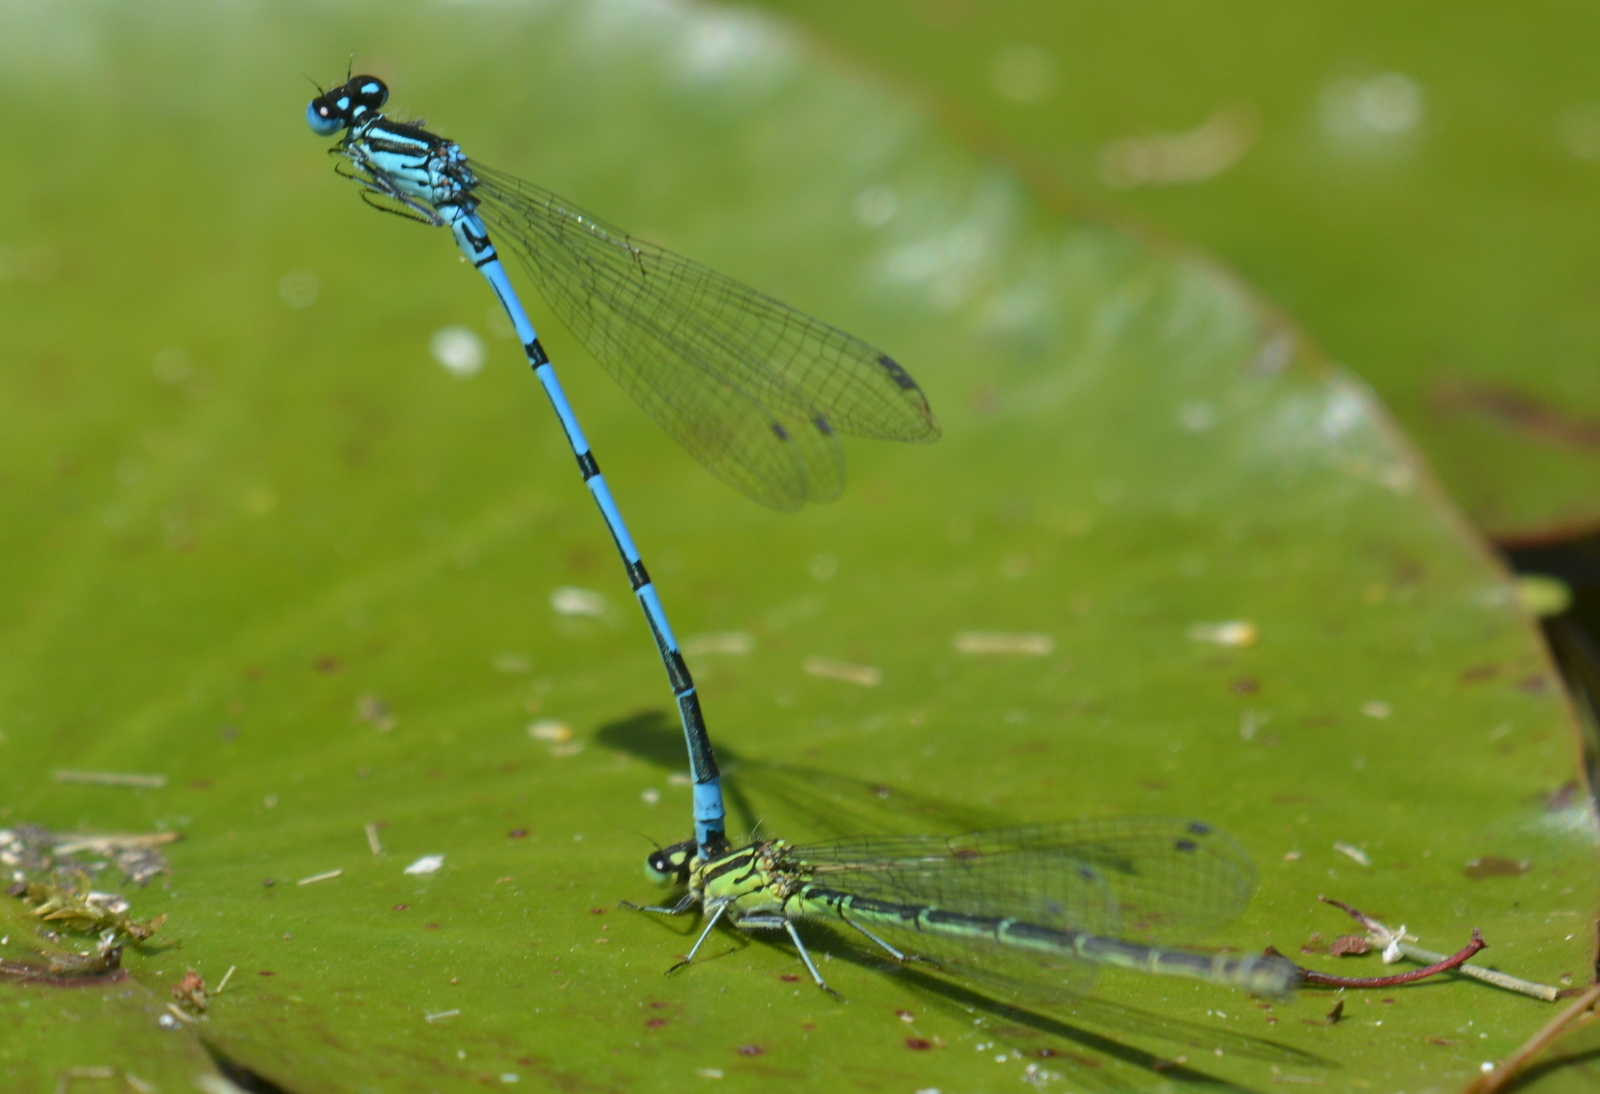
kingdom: Animalia
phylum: Arthropoda
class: Insecta
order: Odonata
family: Coenagrionidae
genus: Coenagrion
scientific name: Coenagrion puella
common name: Azure damselfly
